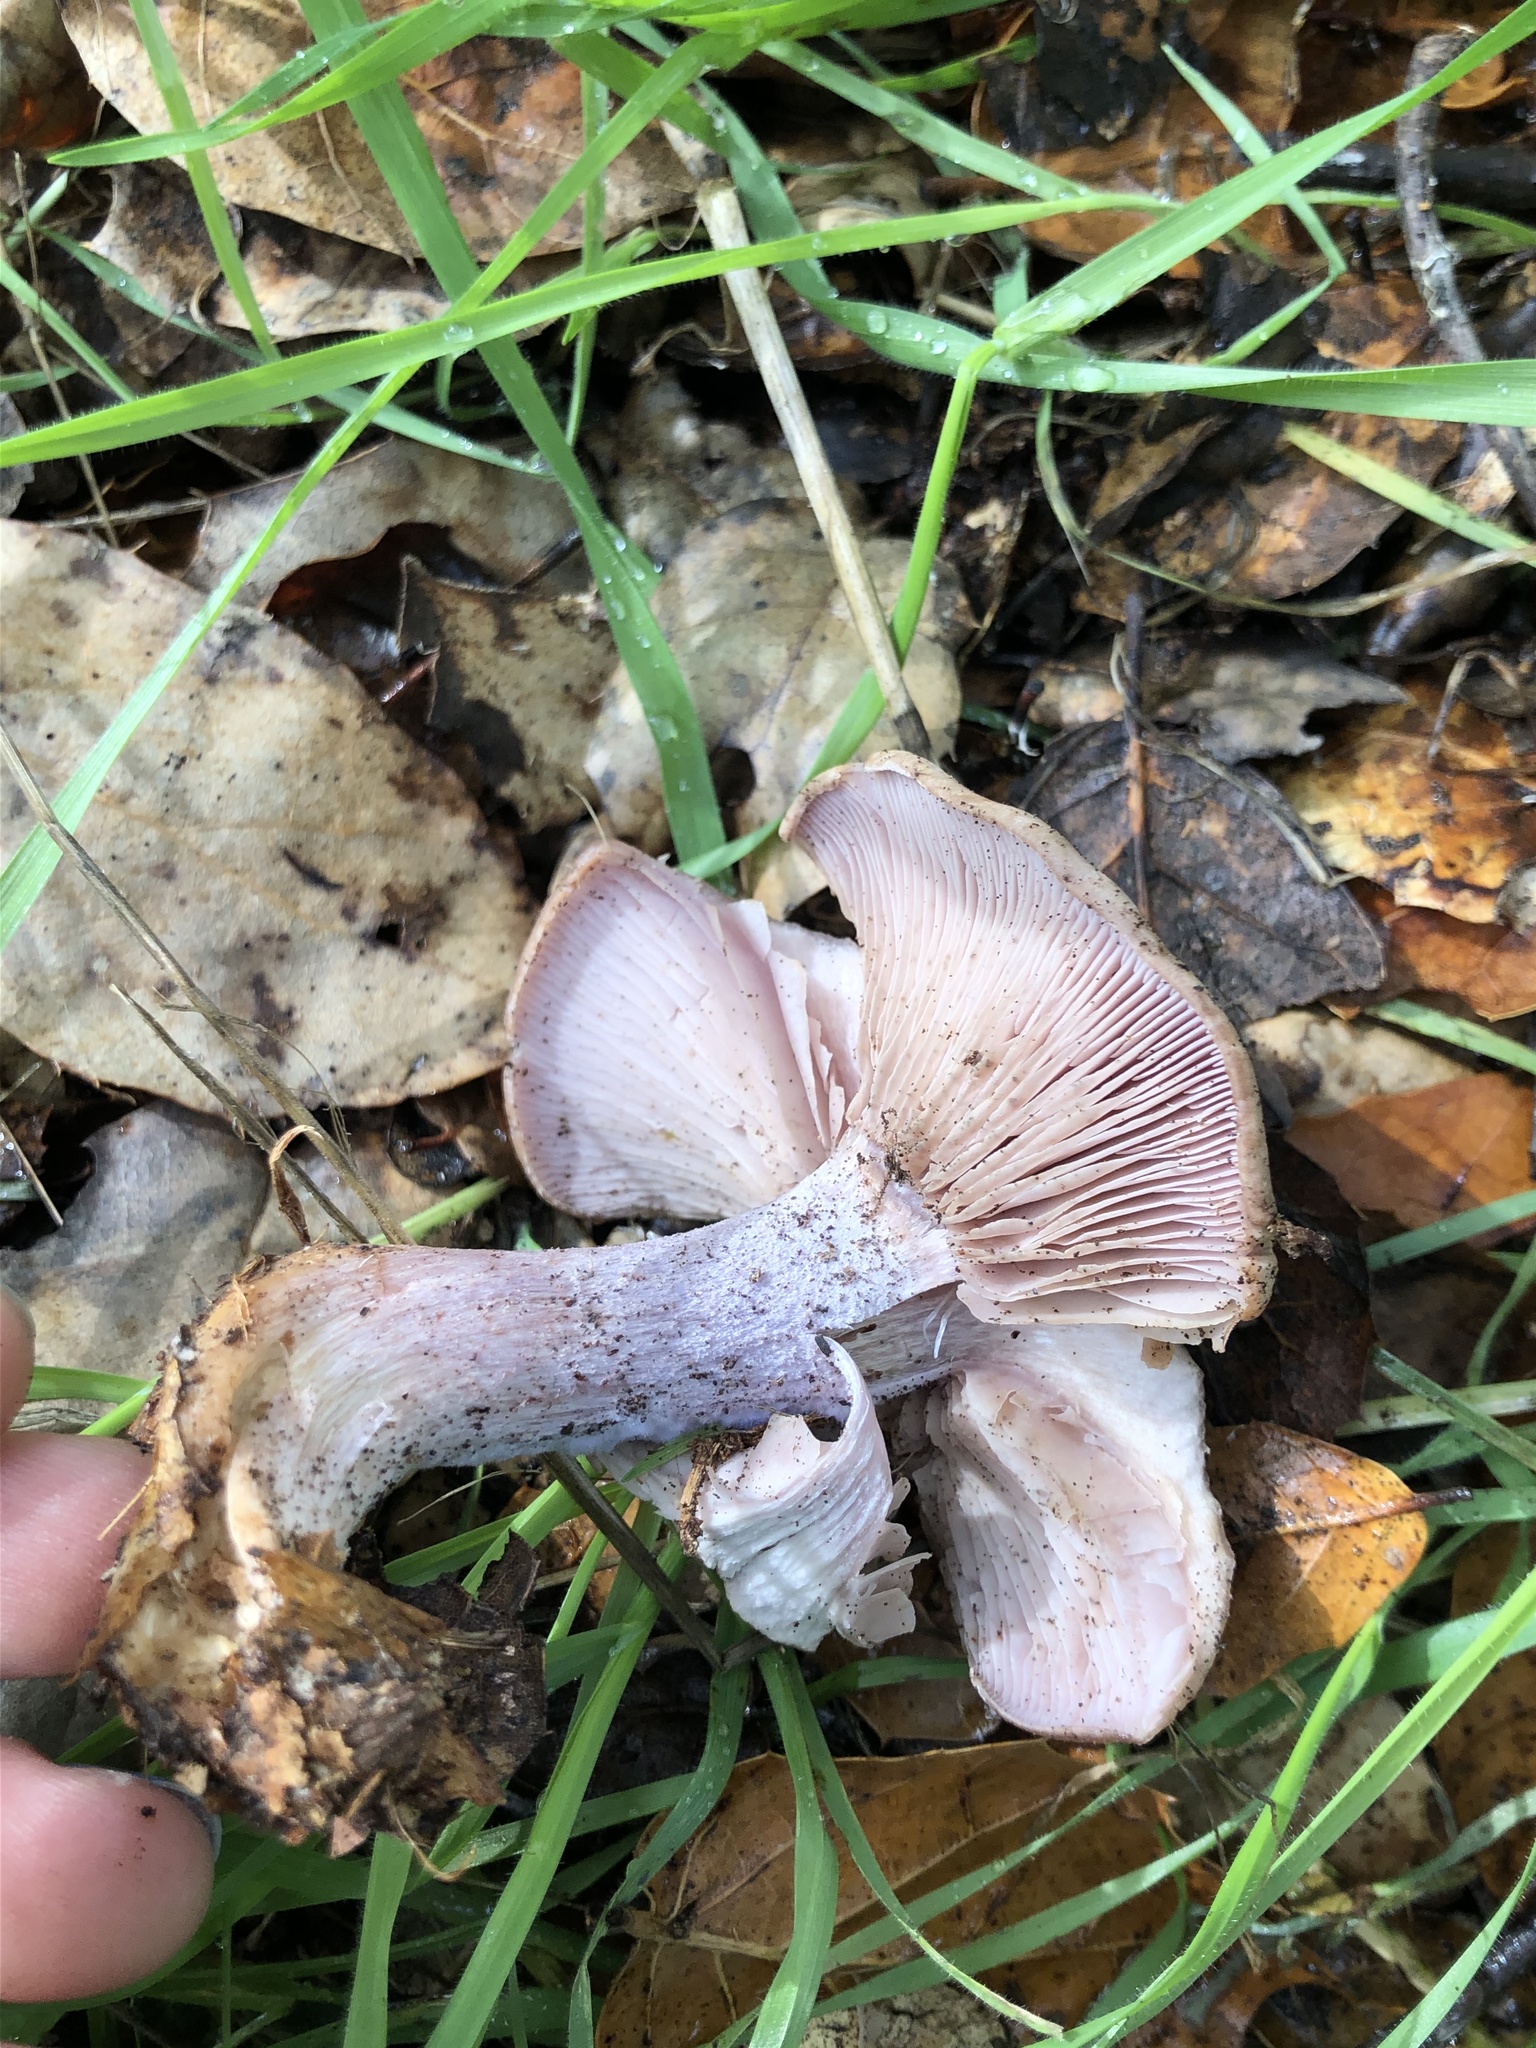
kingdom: Fungi
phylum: Basidiomycota
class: Agaricomycetes
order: Agaricales
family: Tricholomataceae
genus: Collybia
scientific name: Collybia
